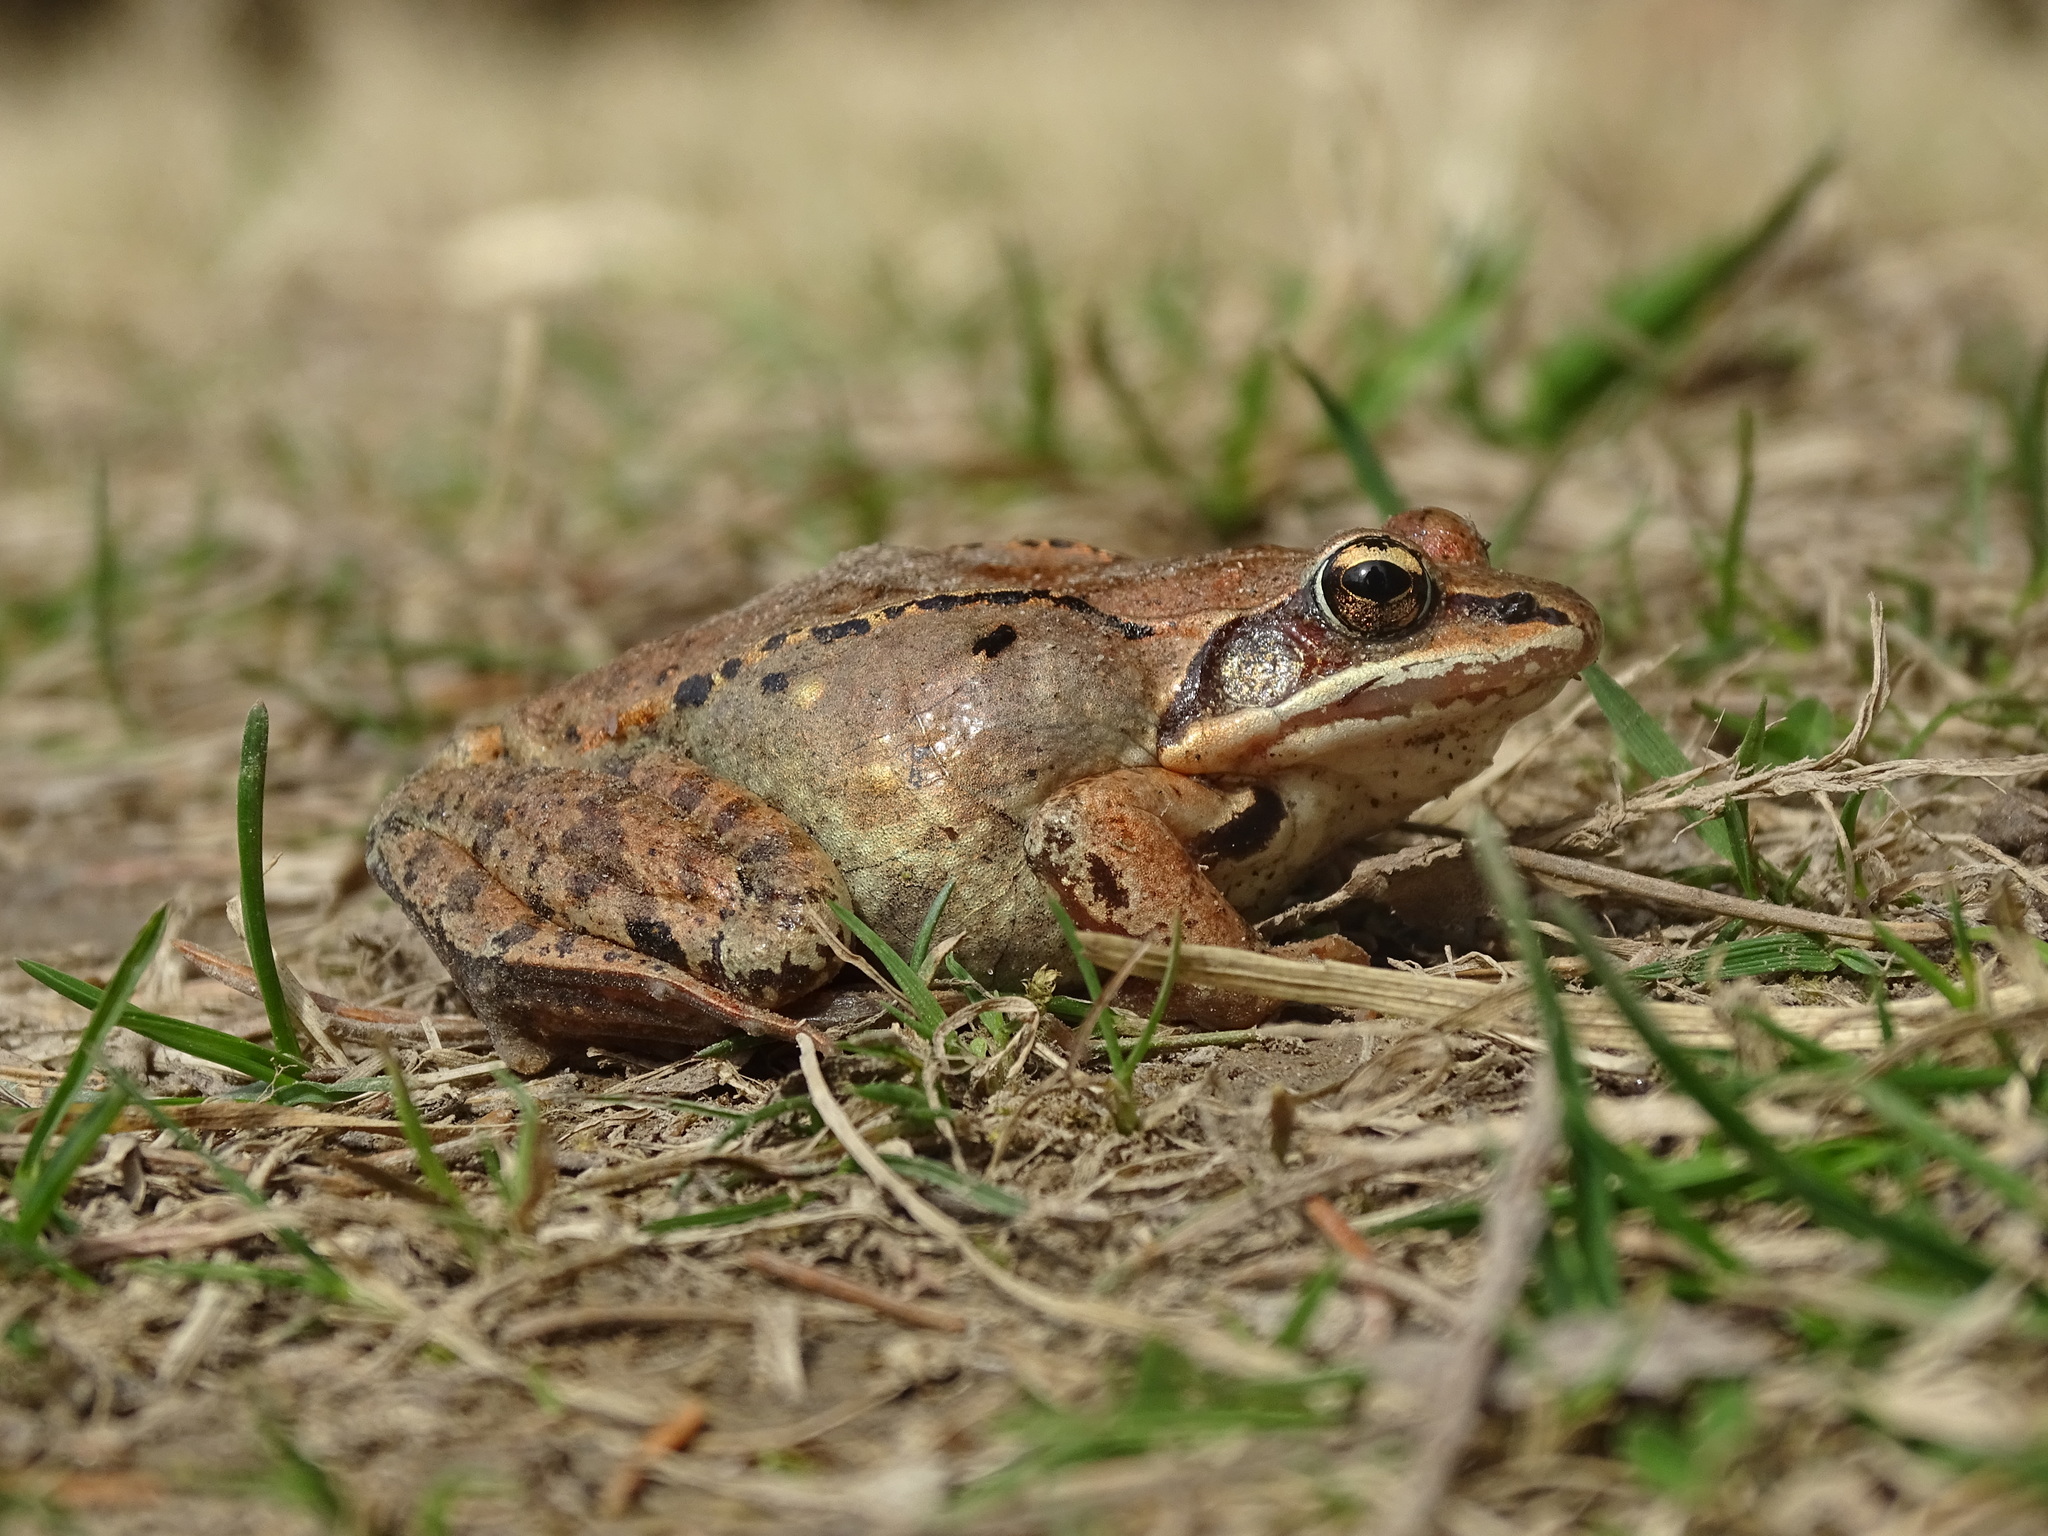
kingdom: Animalia
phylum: Chordata
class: Amphibia
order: Anura
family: Ranidae
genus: Lithobates
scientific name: Lithobates sylvaticus
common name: Wood frog
